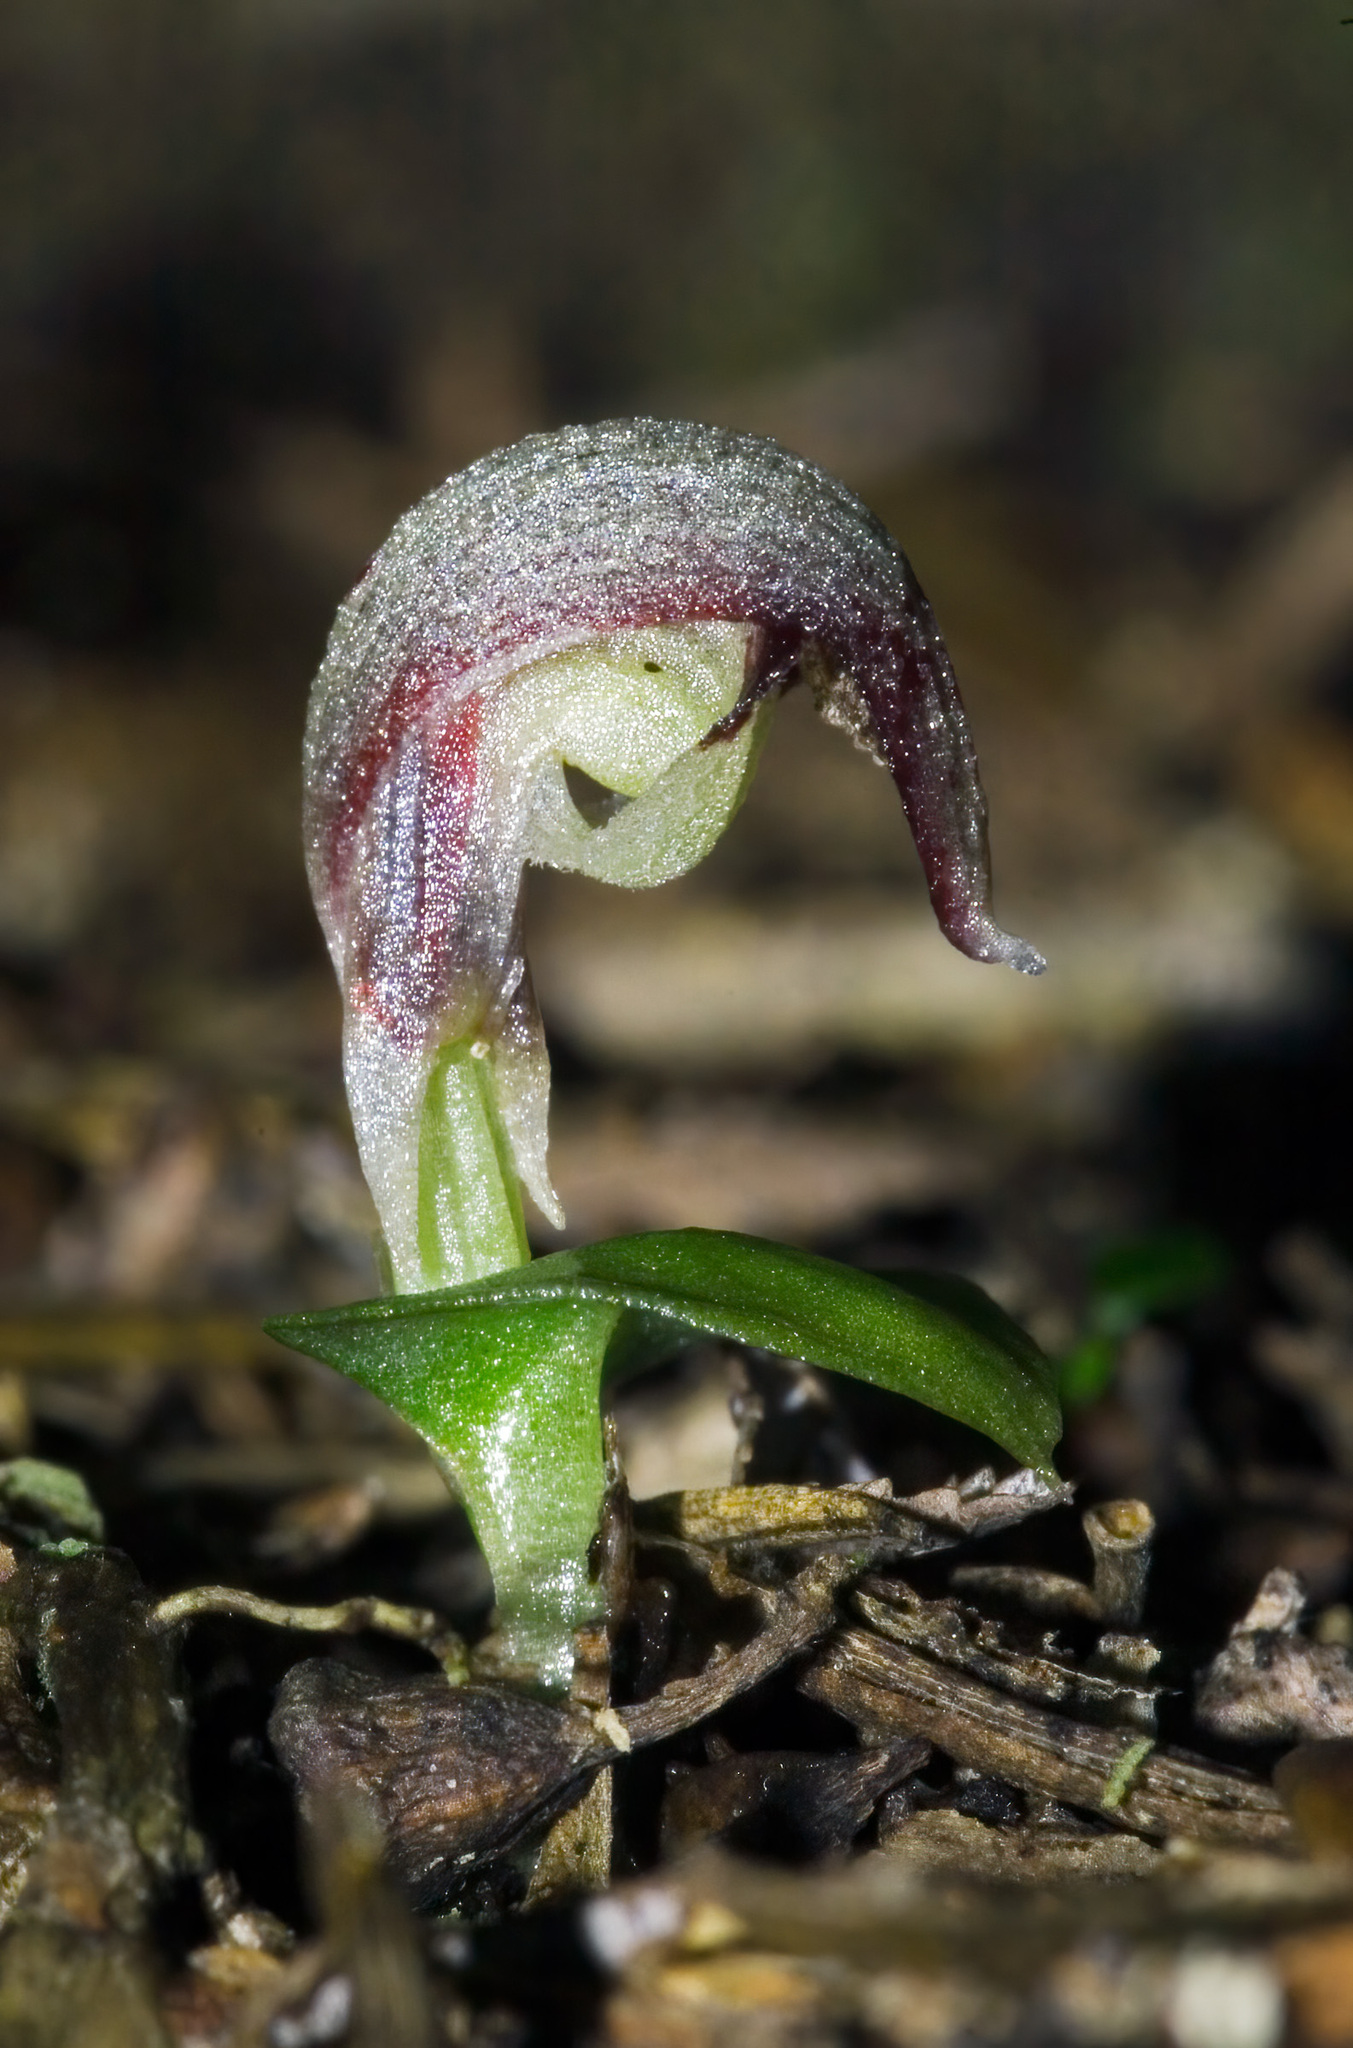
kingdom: Plantae
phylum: Tracheophyta
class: Liliopsida
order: Asparagales
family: Orchidaceae
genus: Corybas
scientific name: Corybas cheesemanii
